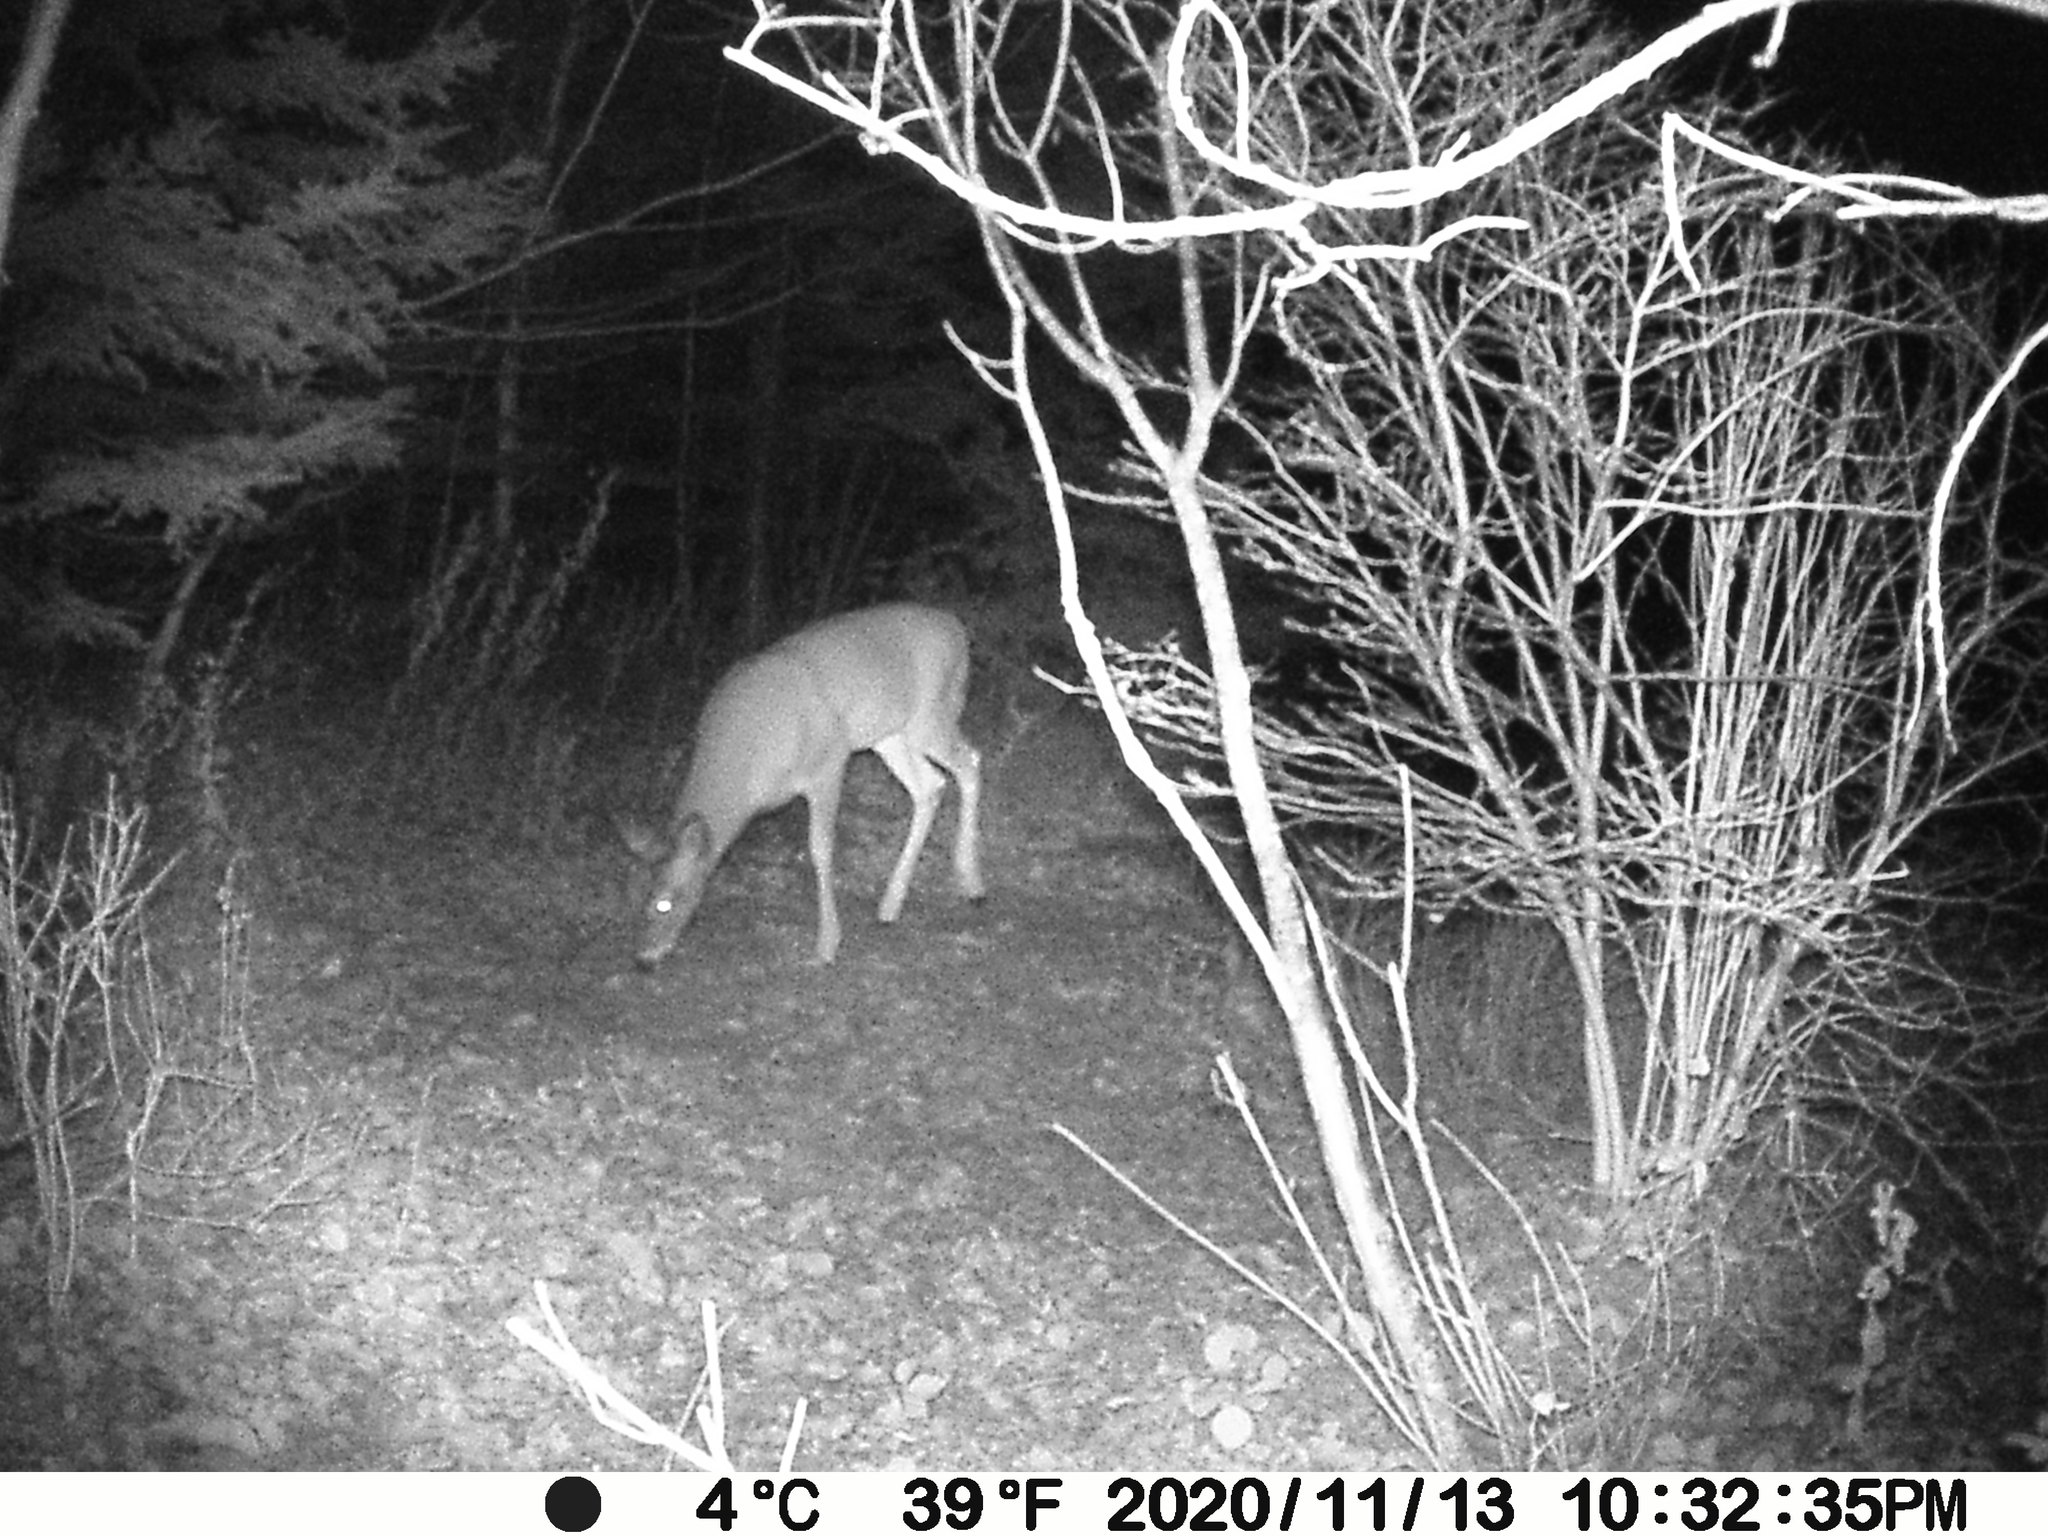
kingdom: Animalia
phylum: Chordata
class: Mammalia
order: Artiodactyla
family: Cervidae
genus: Odocoileus
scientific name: Odocoileus virginianus
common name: White-tailed deer
